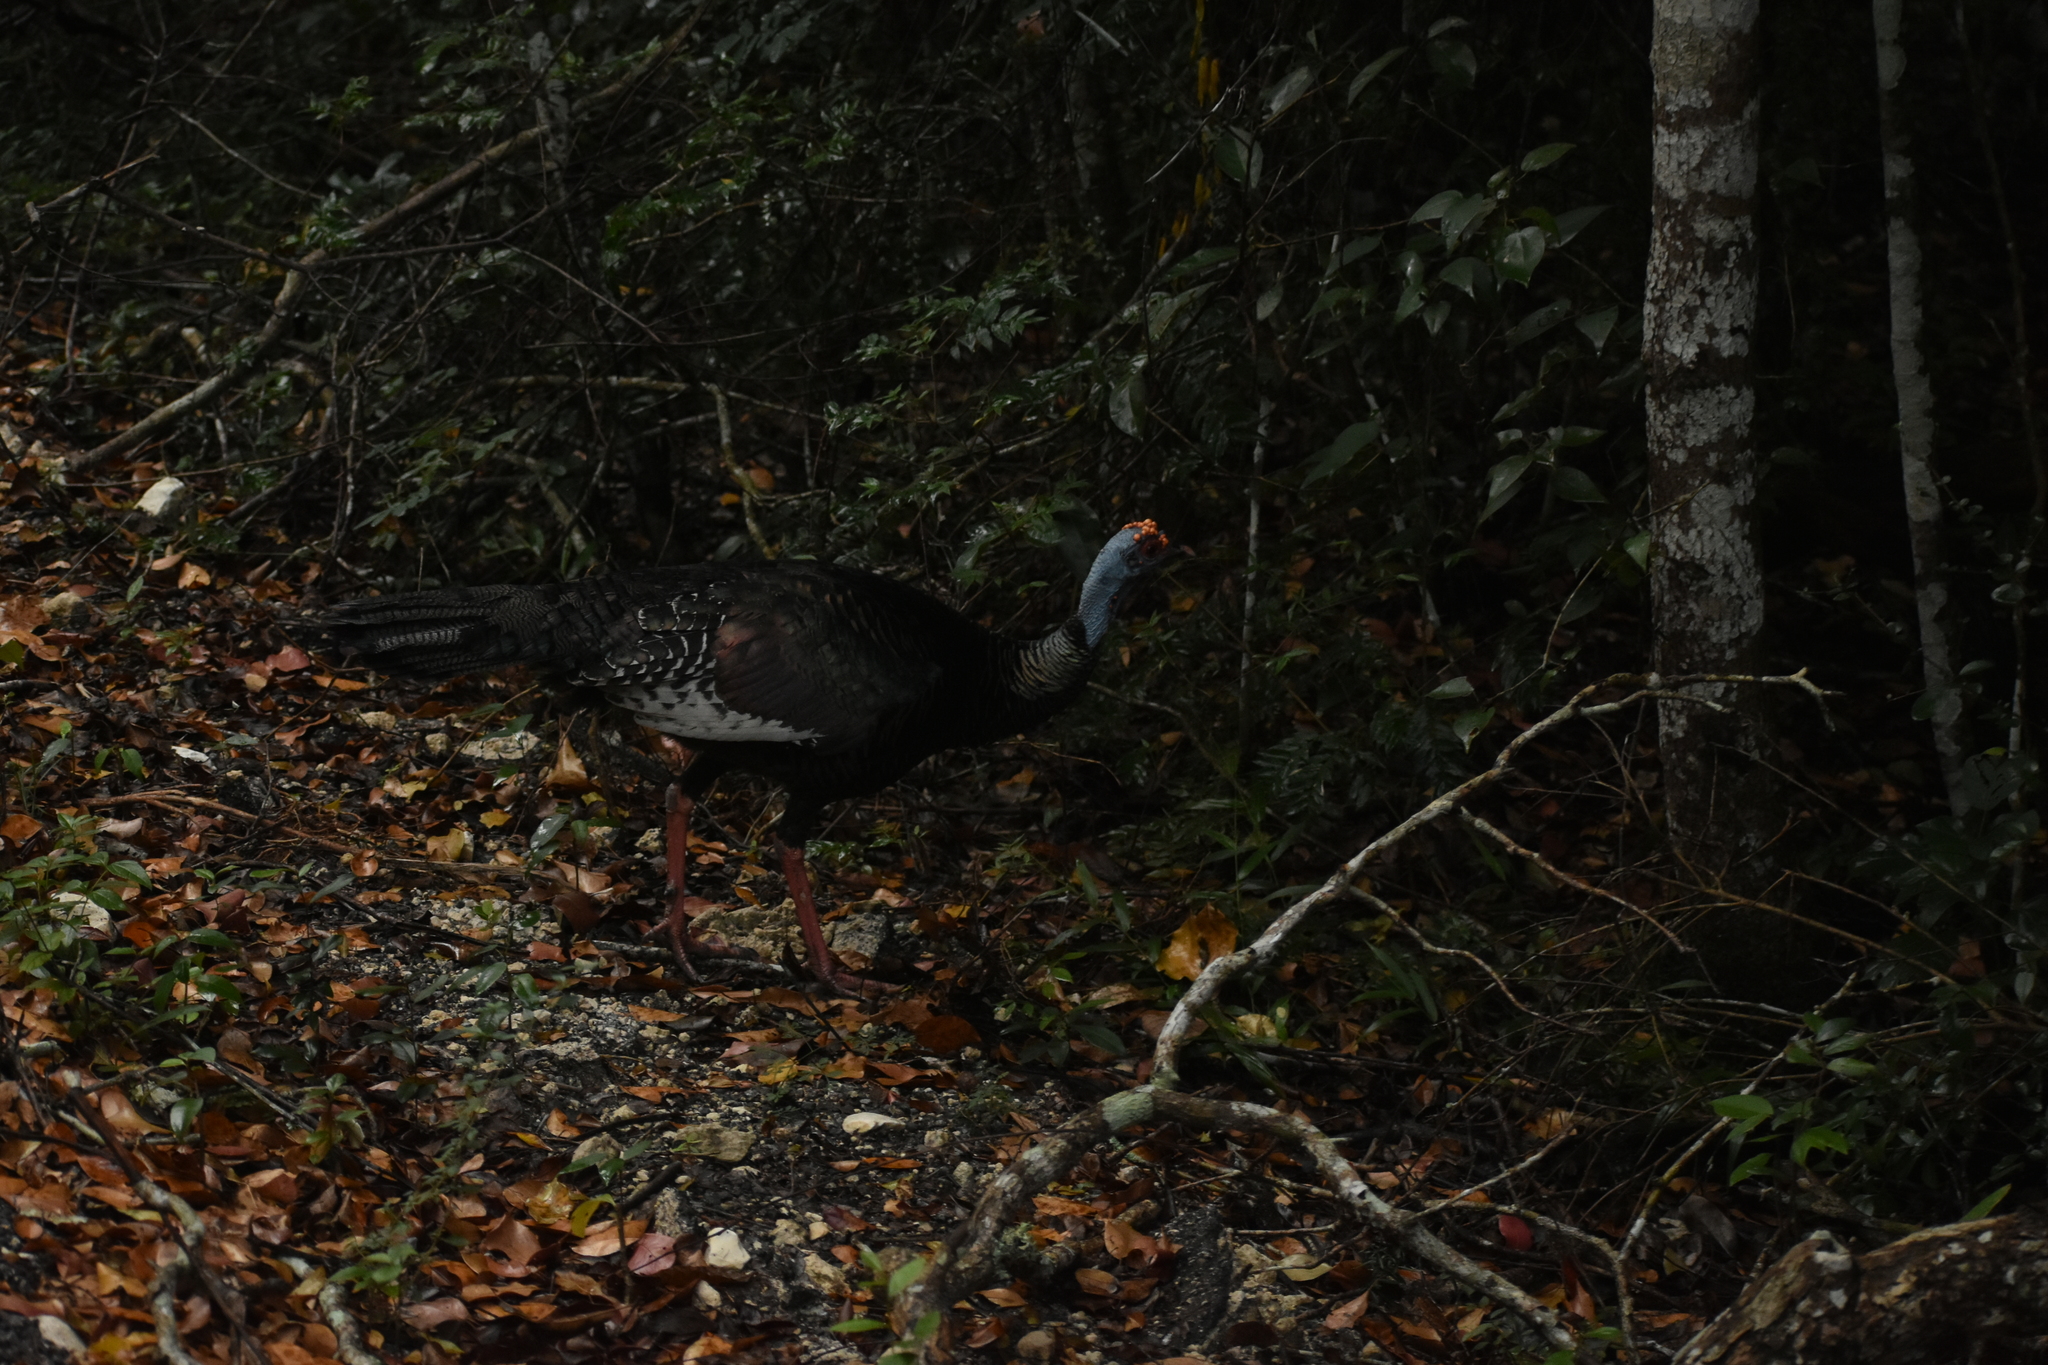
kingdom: Animalia
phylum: Chordata
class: Aves
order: Galliformes
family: Phasianidae
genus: Meleagris
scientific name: Meleagris ocellata
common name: Ocellated turkey
